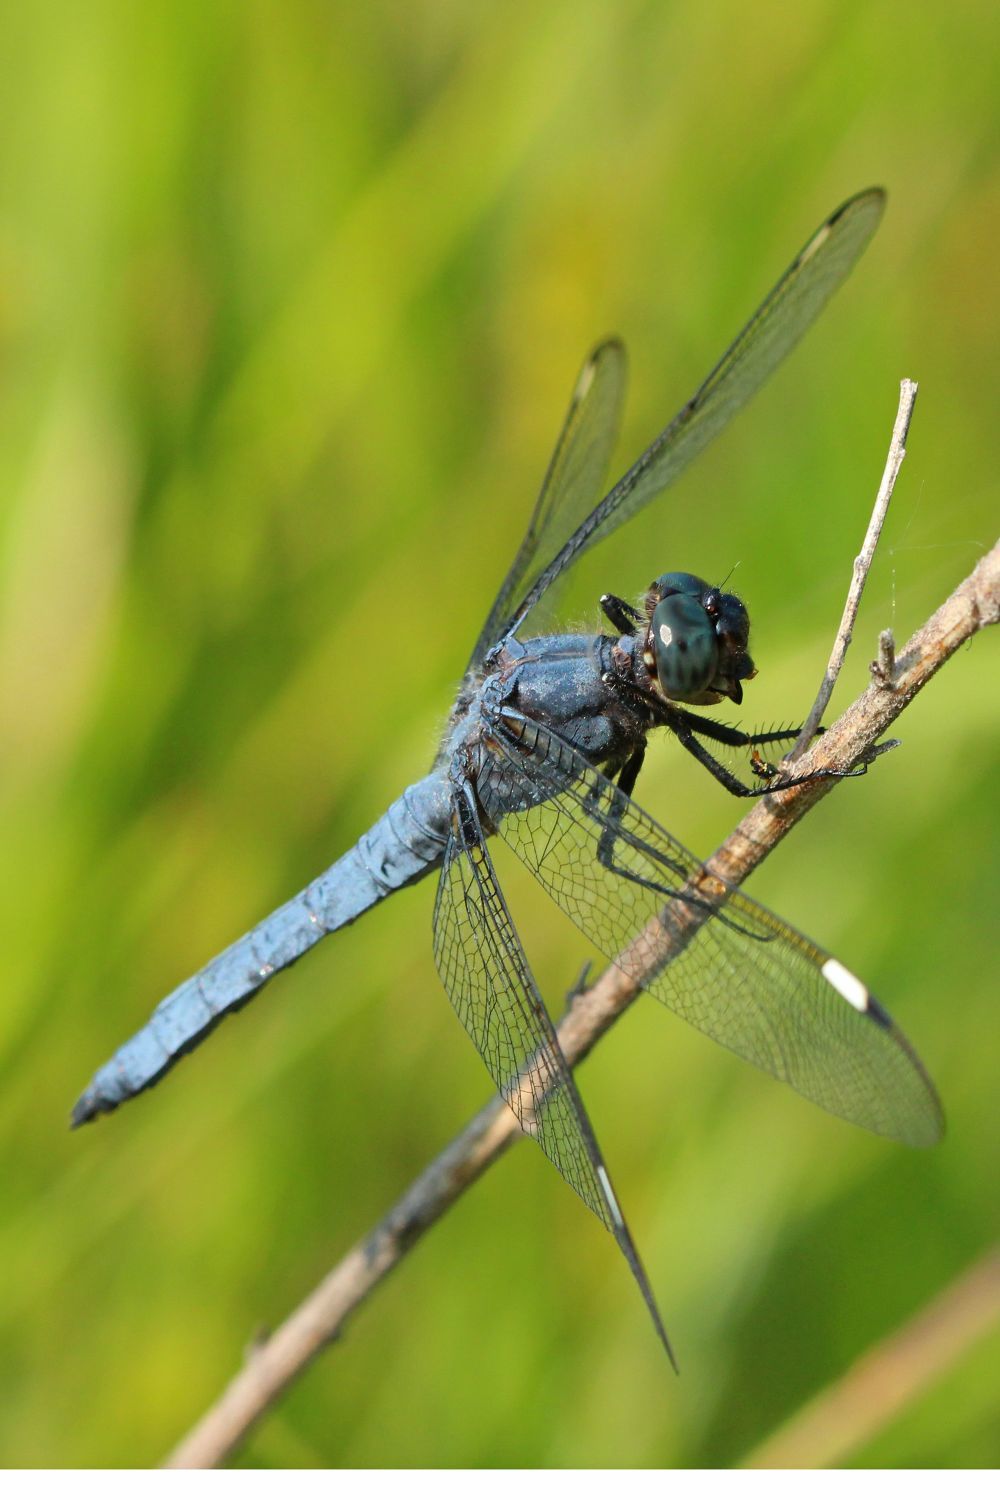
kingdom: Animalia
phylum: Arthropoda
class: Insecta
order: Odonata
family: Libellulidae
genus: Libellula
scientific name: Libellula cyanea
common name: Spangled skimmer
